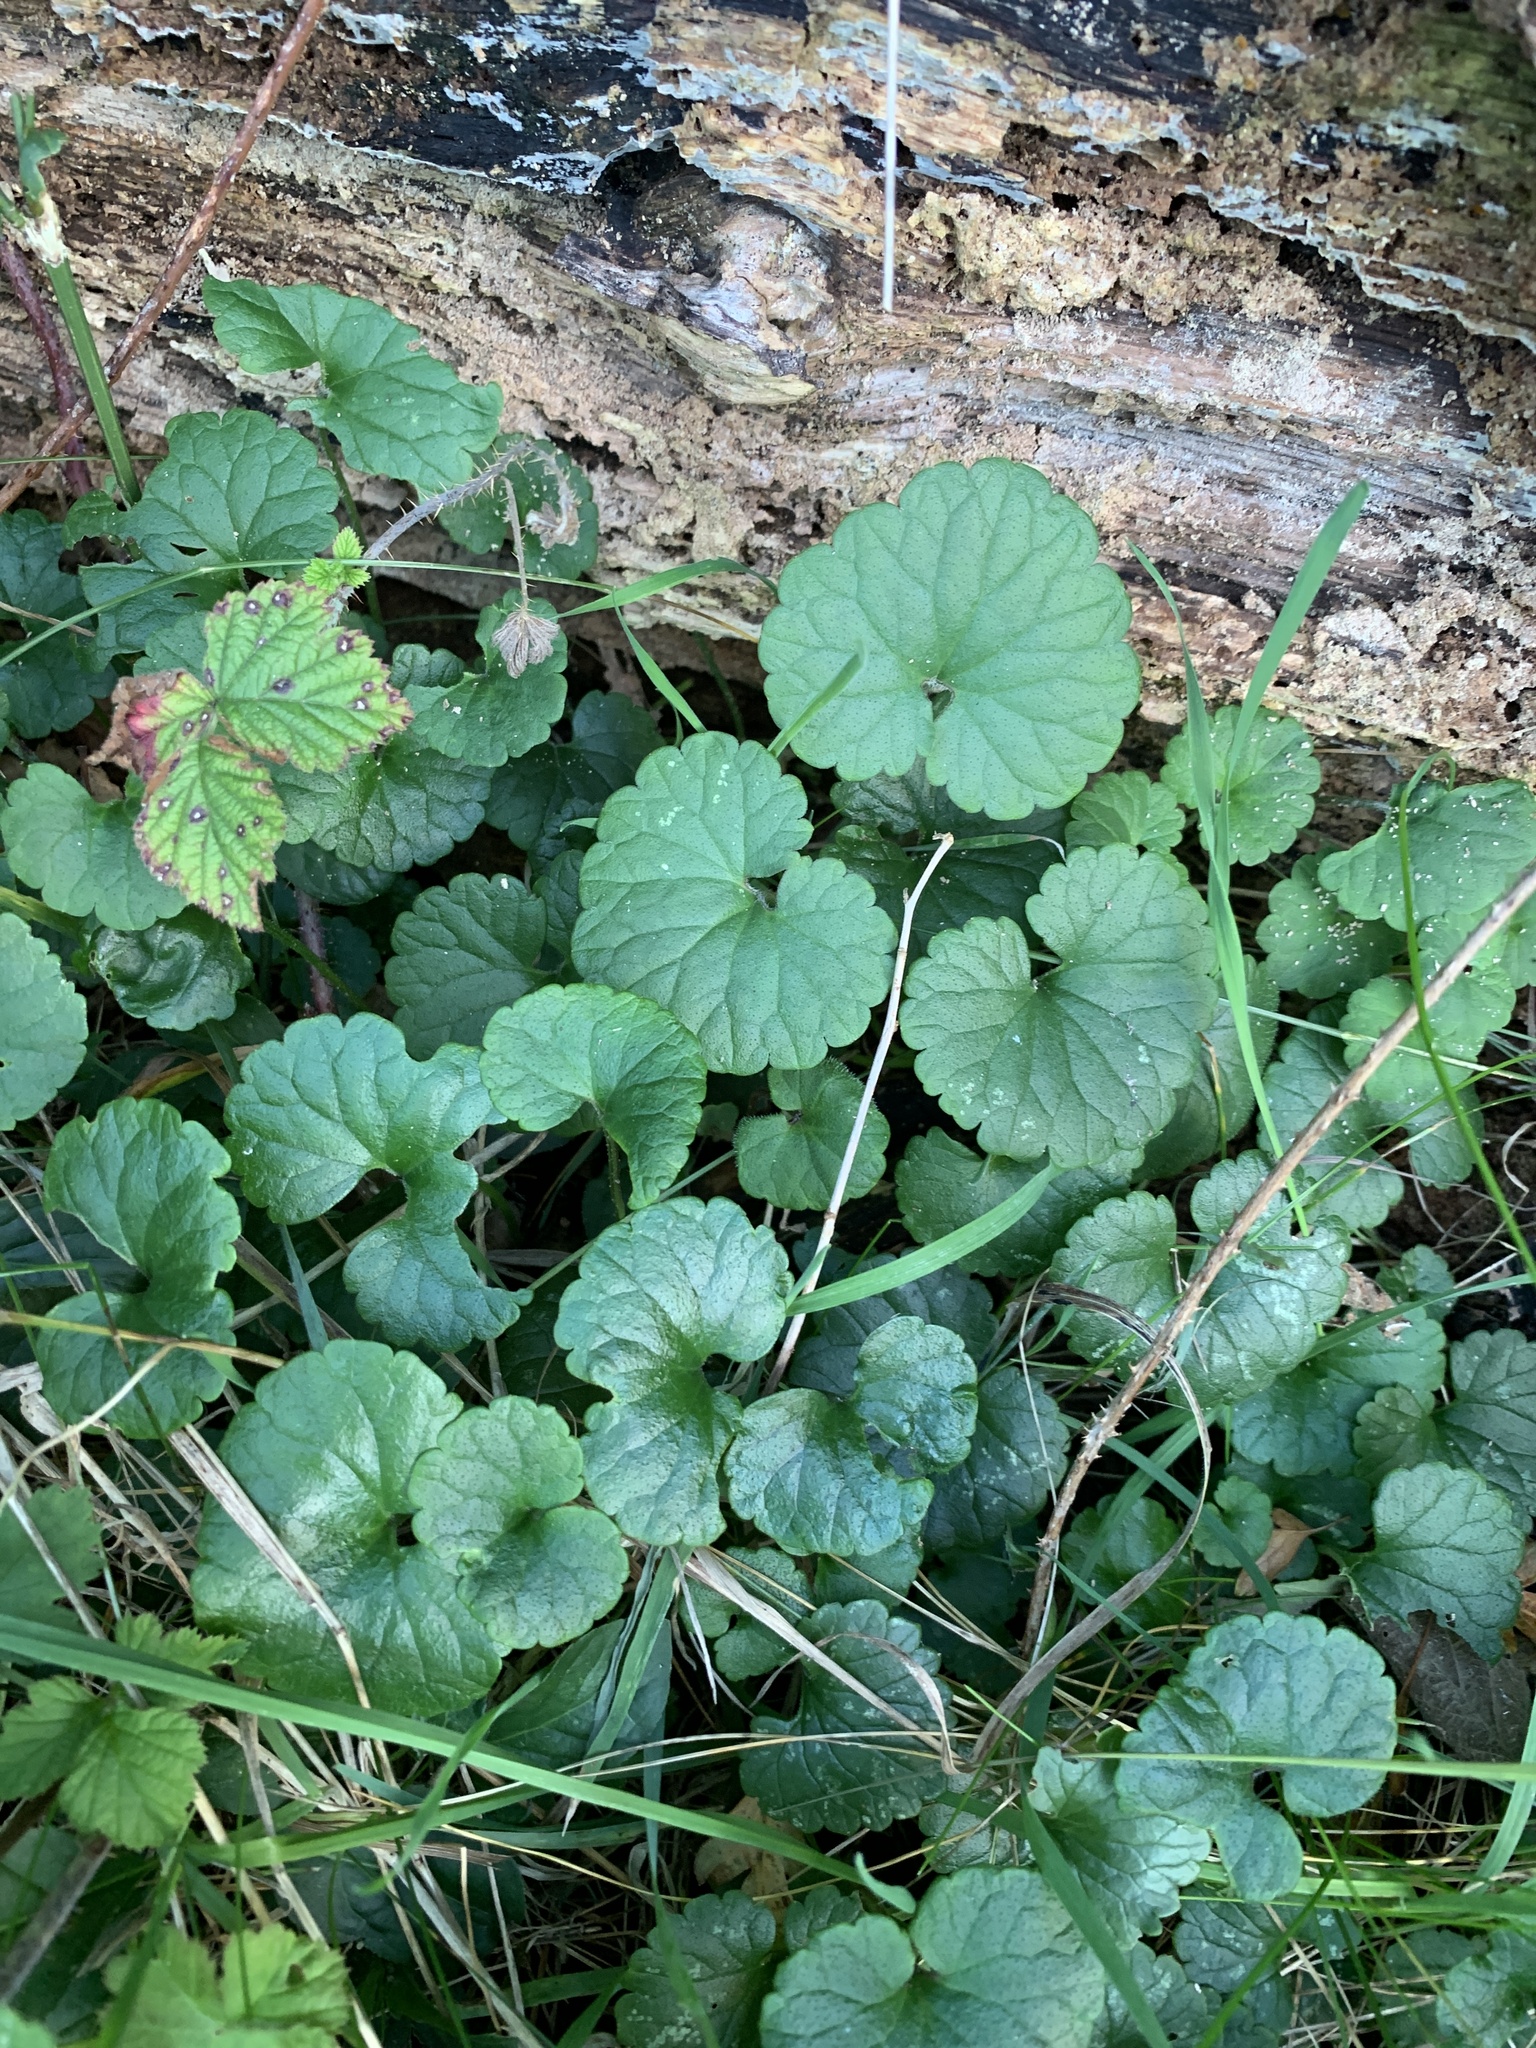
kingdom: Plantae
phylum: Tracheophyta
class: Magnoliopsida
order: Lamiales
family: Lamiaceae
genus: Glechoma
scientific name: Glechoma hederacea
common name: Ground ivy
